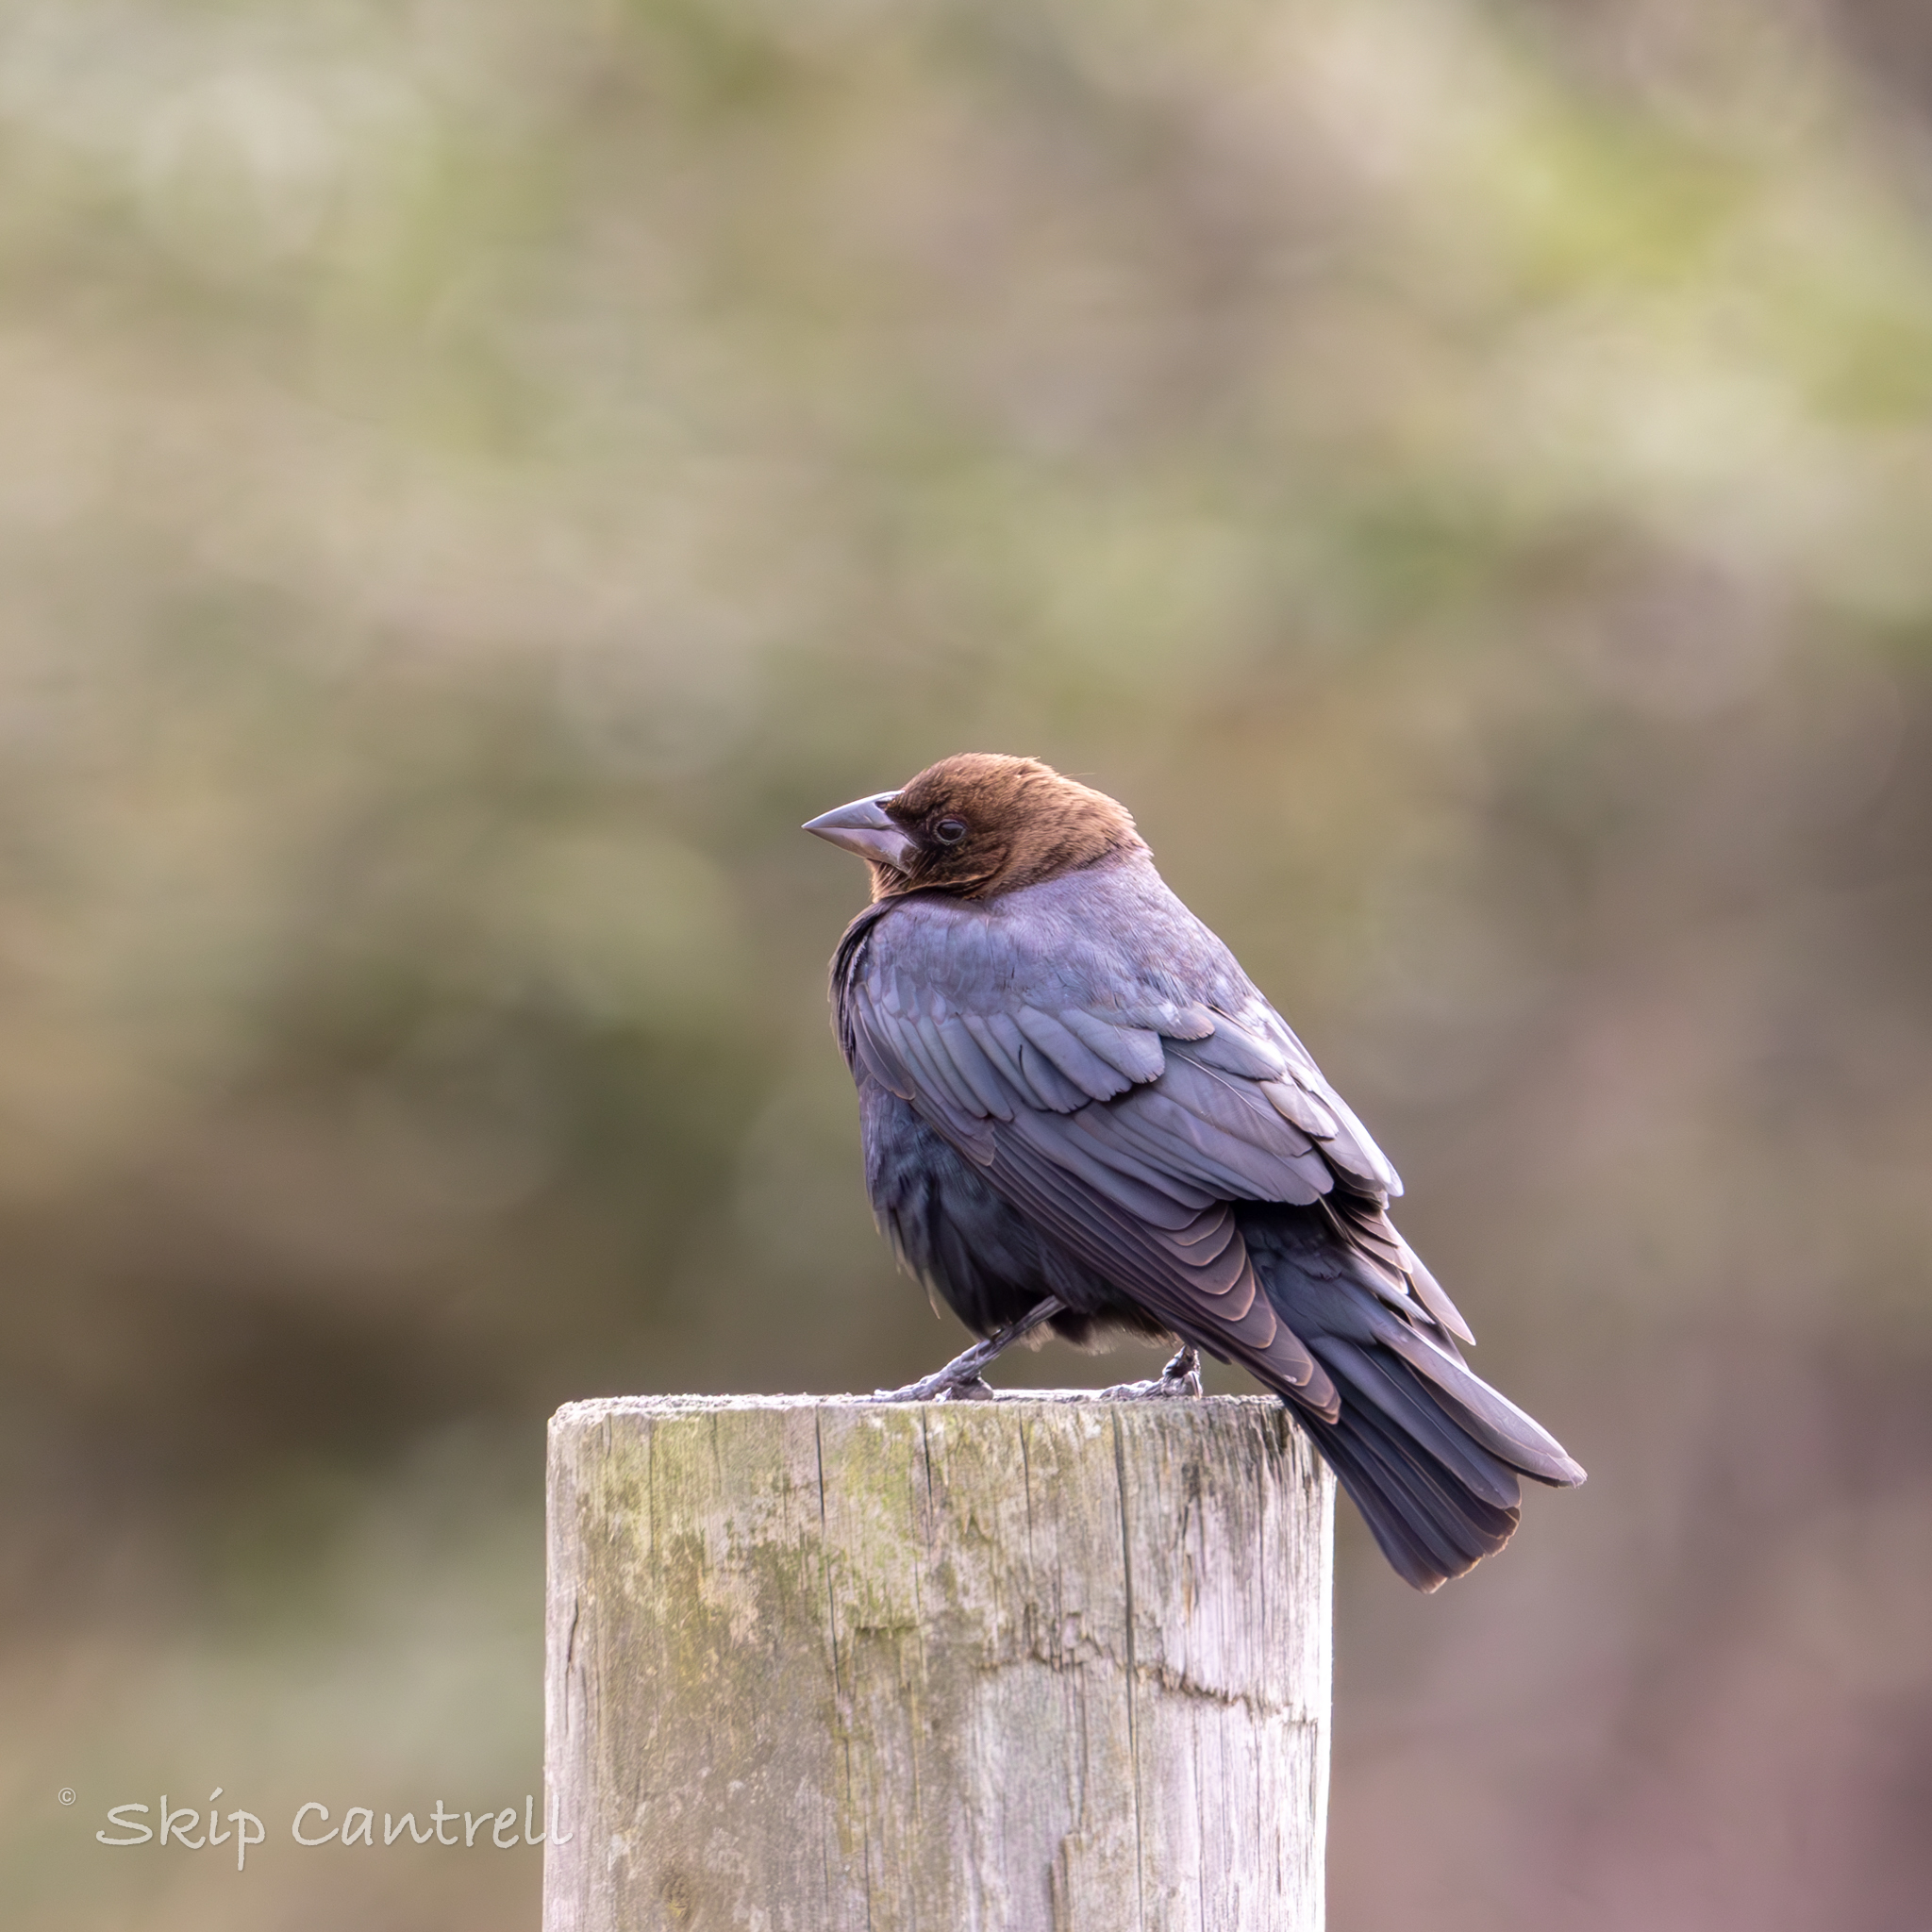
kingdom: Animalia
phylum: Chordata
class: Aves
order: Passeriformes
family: Icteridae
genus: Molothrus
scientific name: Molothrus ater
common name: Brown-headed cowbird
